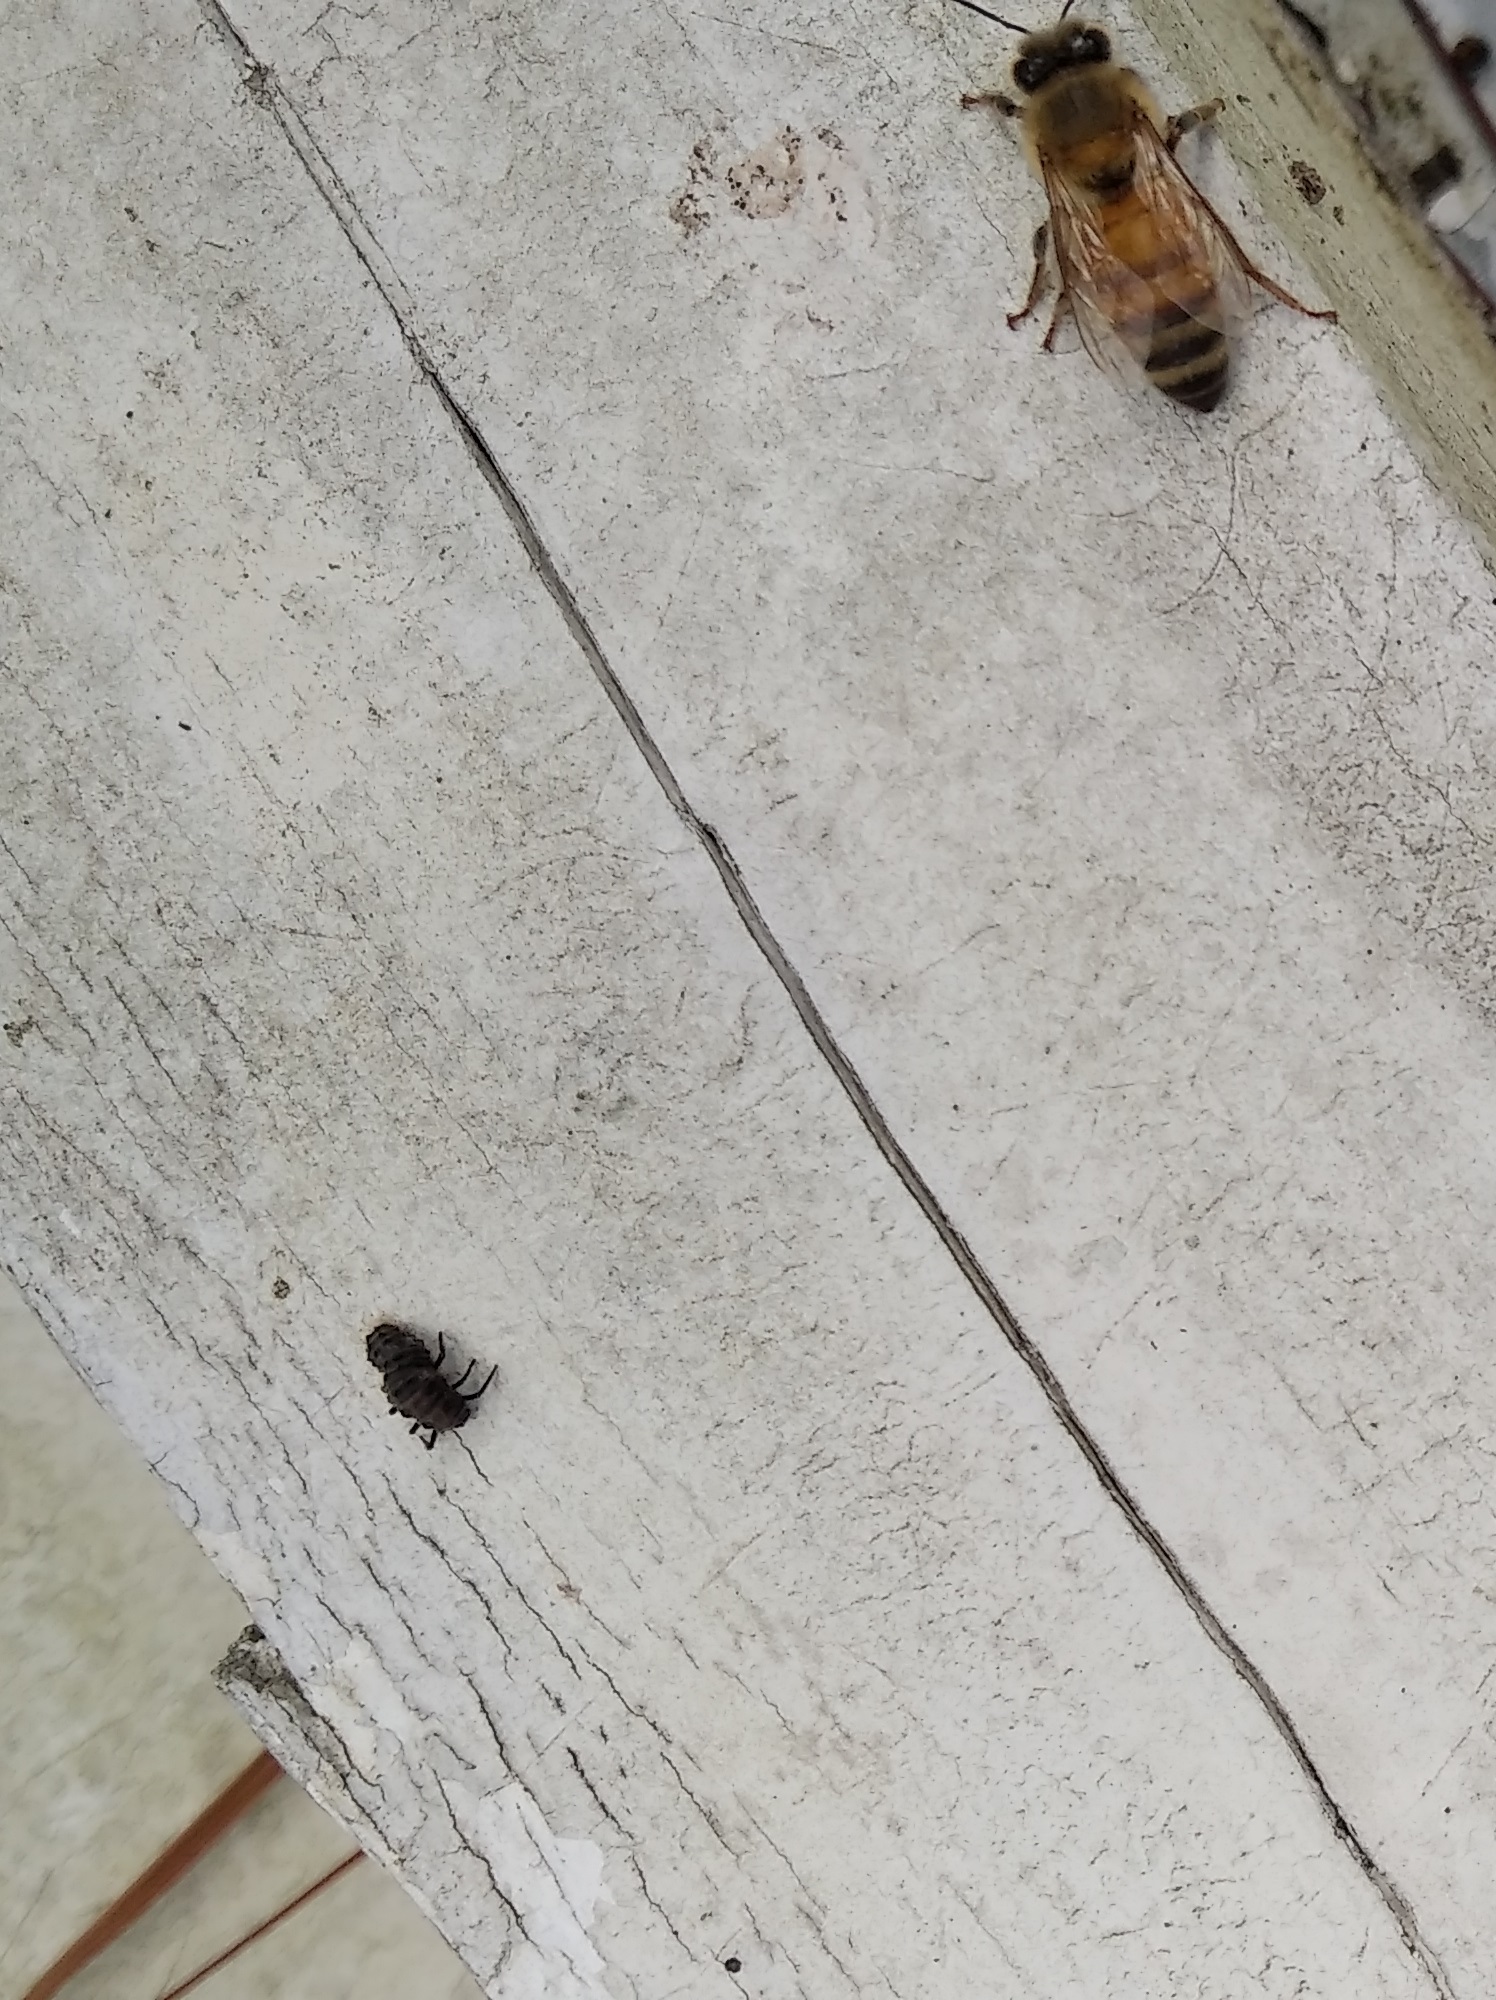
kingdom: Animalia
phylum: Arthropoda
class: Insecta
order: Hymenoptera
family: Apidae
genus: Apis
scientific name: Apis mellifera
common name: Honey bee
